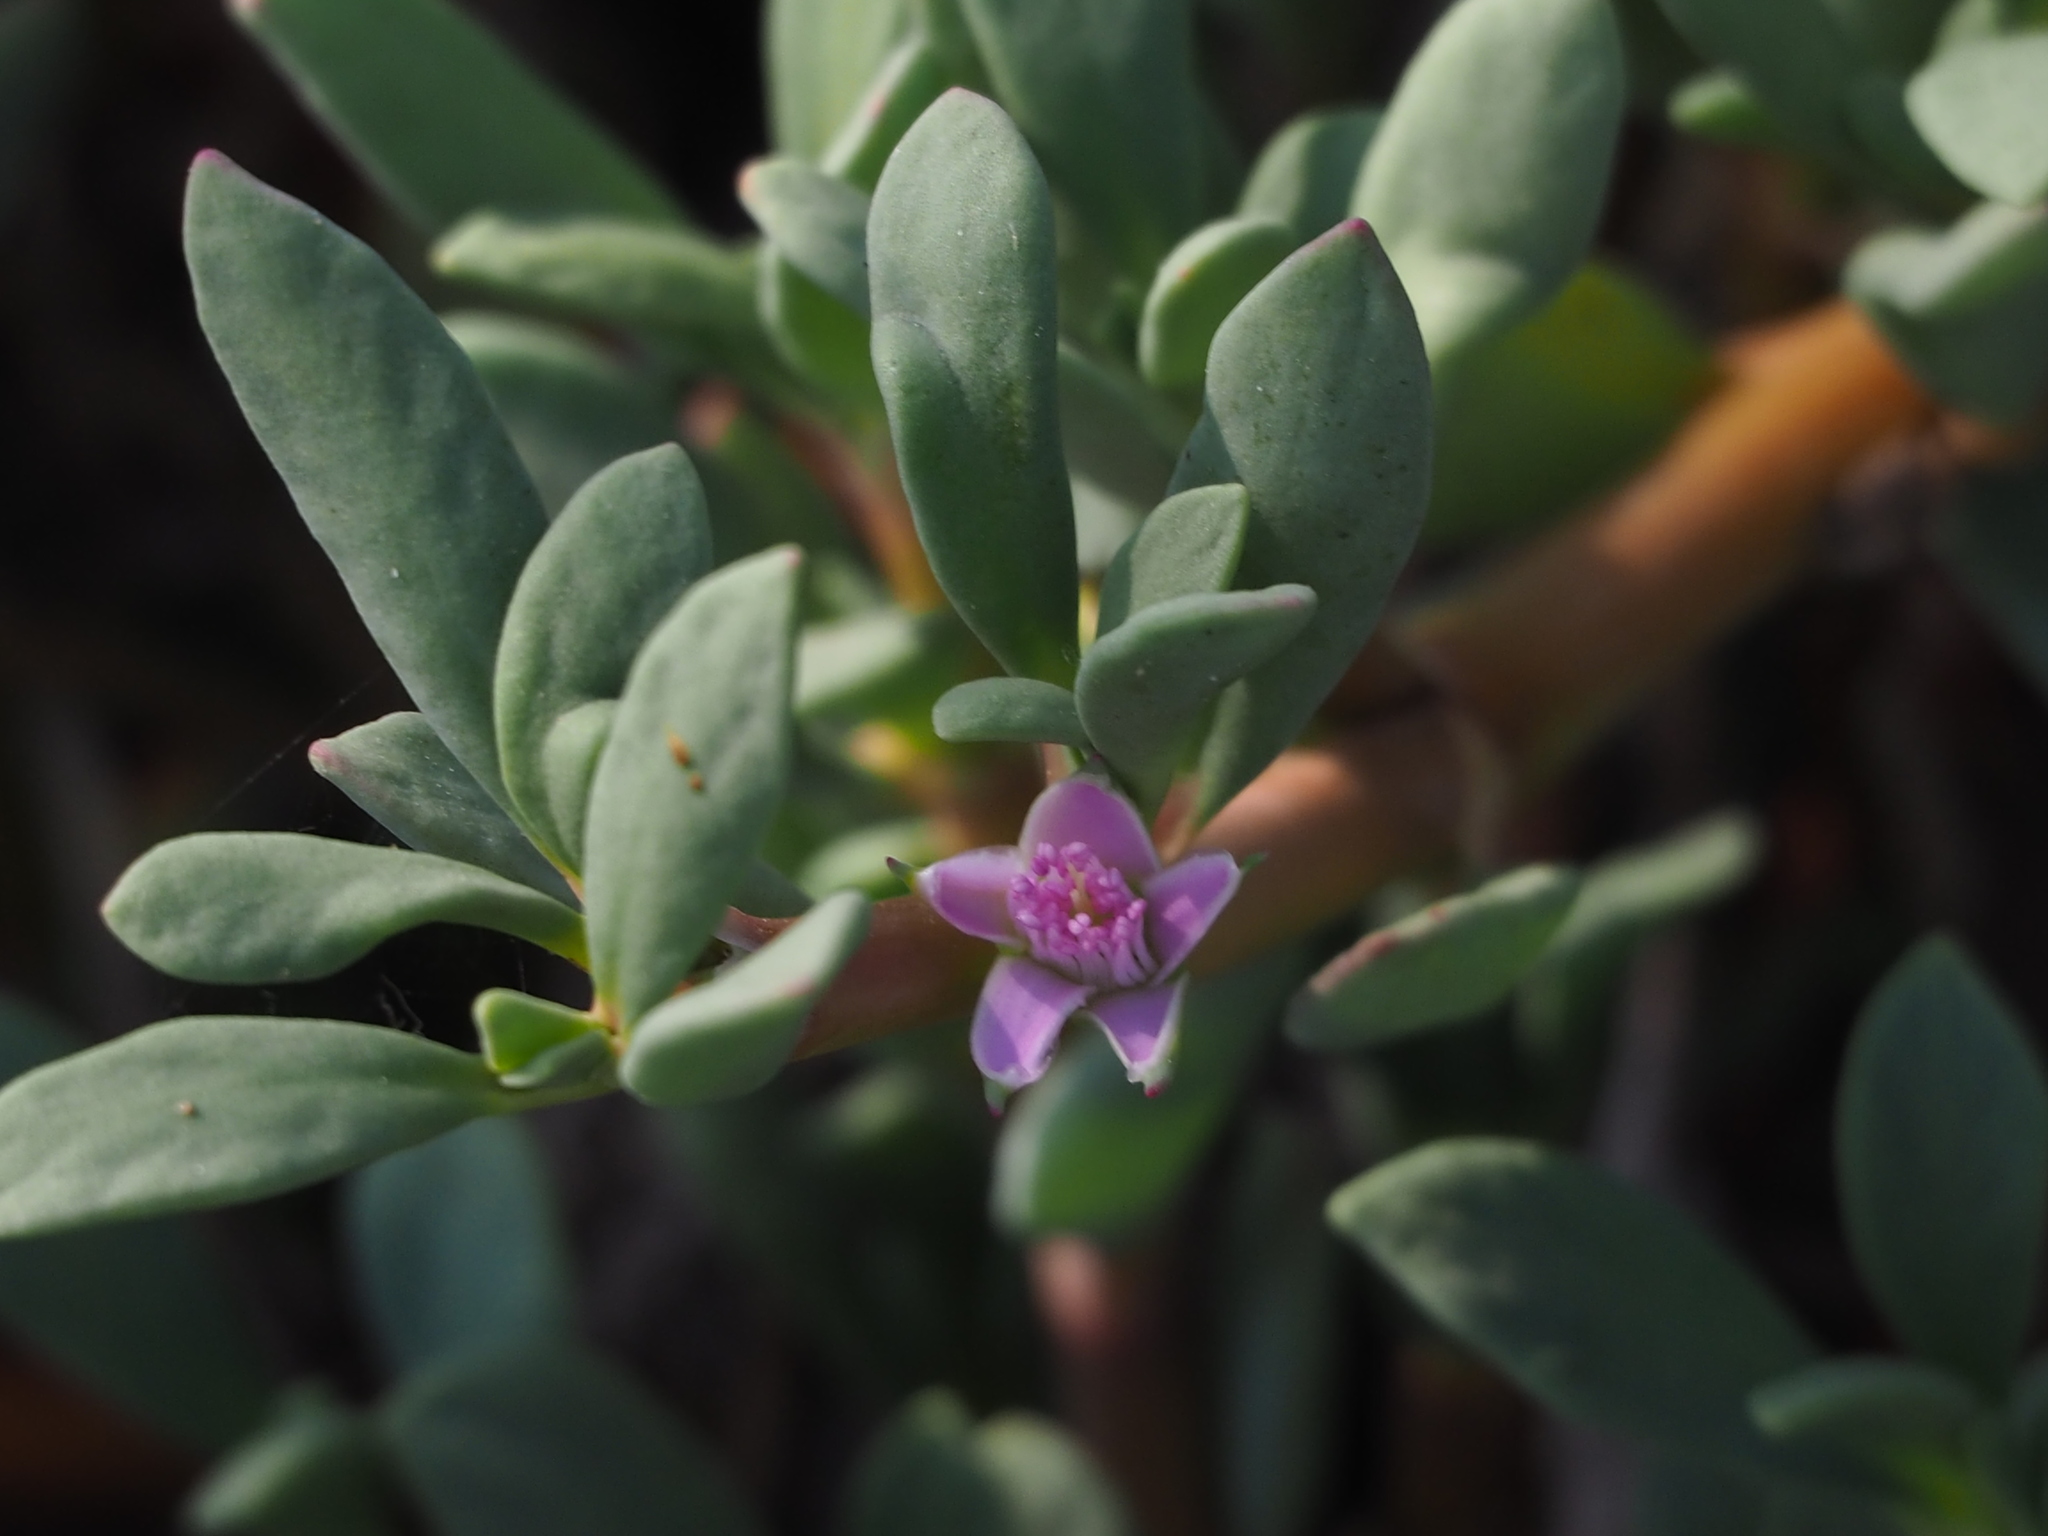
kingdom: Plantae
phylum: Tracheophyta
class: Magnoliopsida
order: Caryophyllales
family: Aizoaceae
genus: Sesuvium
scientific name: Sesuvium portulacastrum
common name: Sea-purslane
